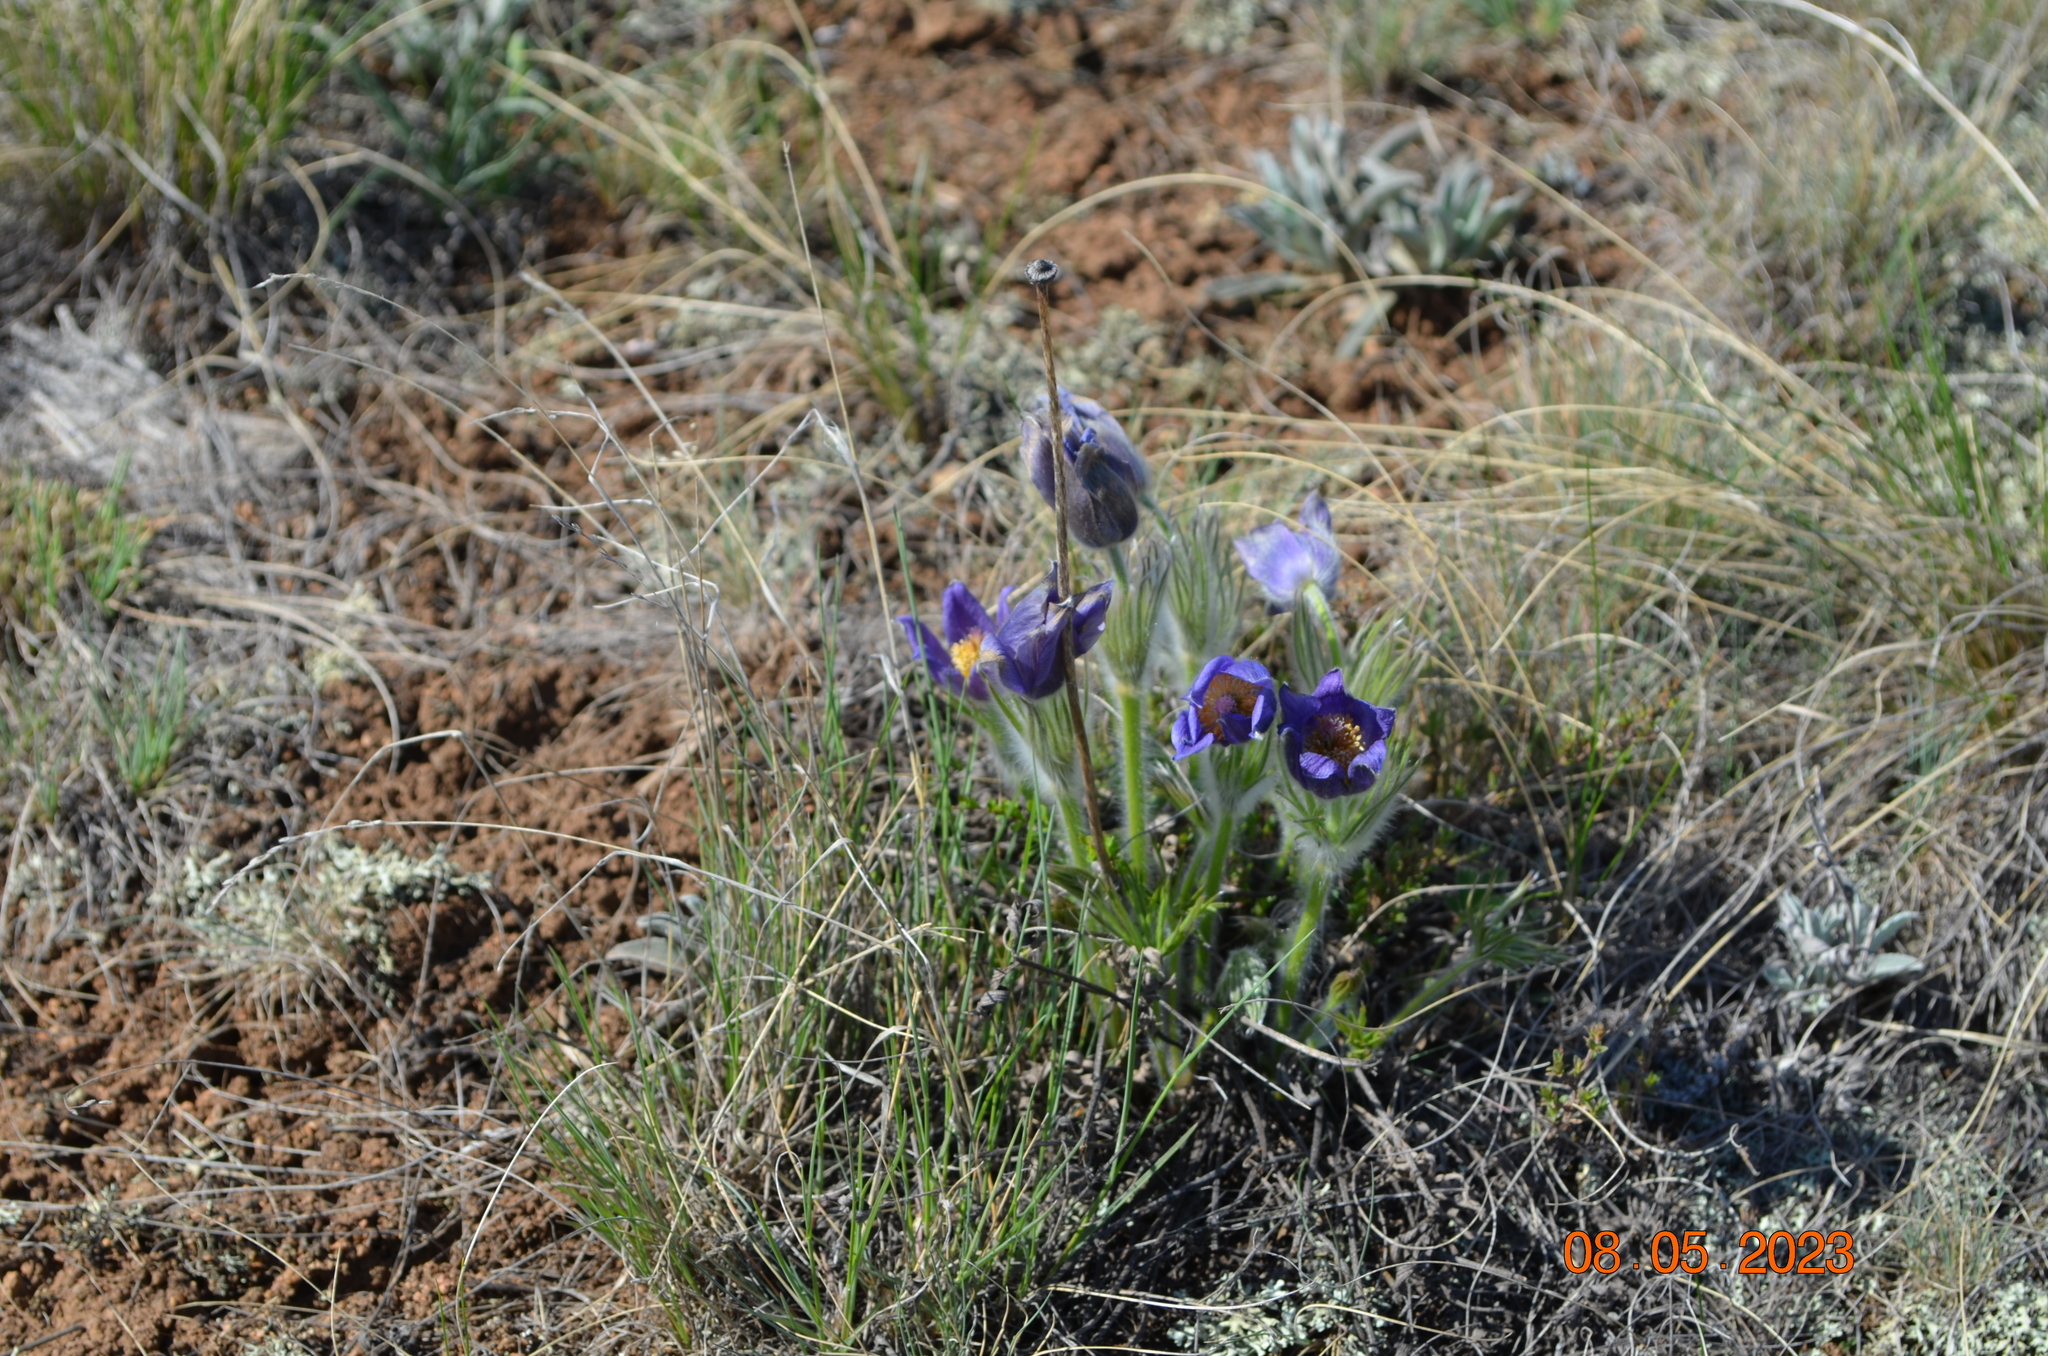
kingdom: Plantae
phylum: Tracheophyta
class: Magnoliopsida
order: Ranunculales
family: Ranunculaceae
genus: Pulsatilla
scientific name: Pulsatilla patens
